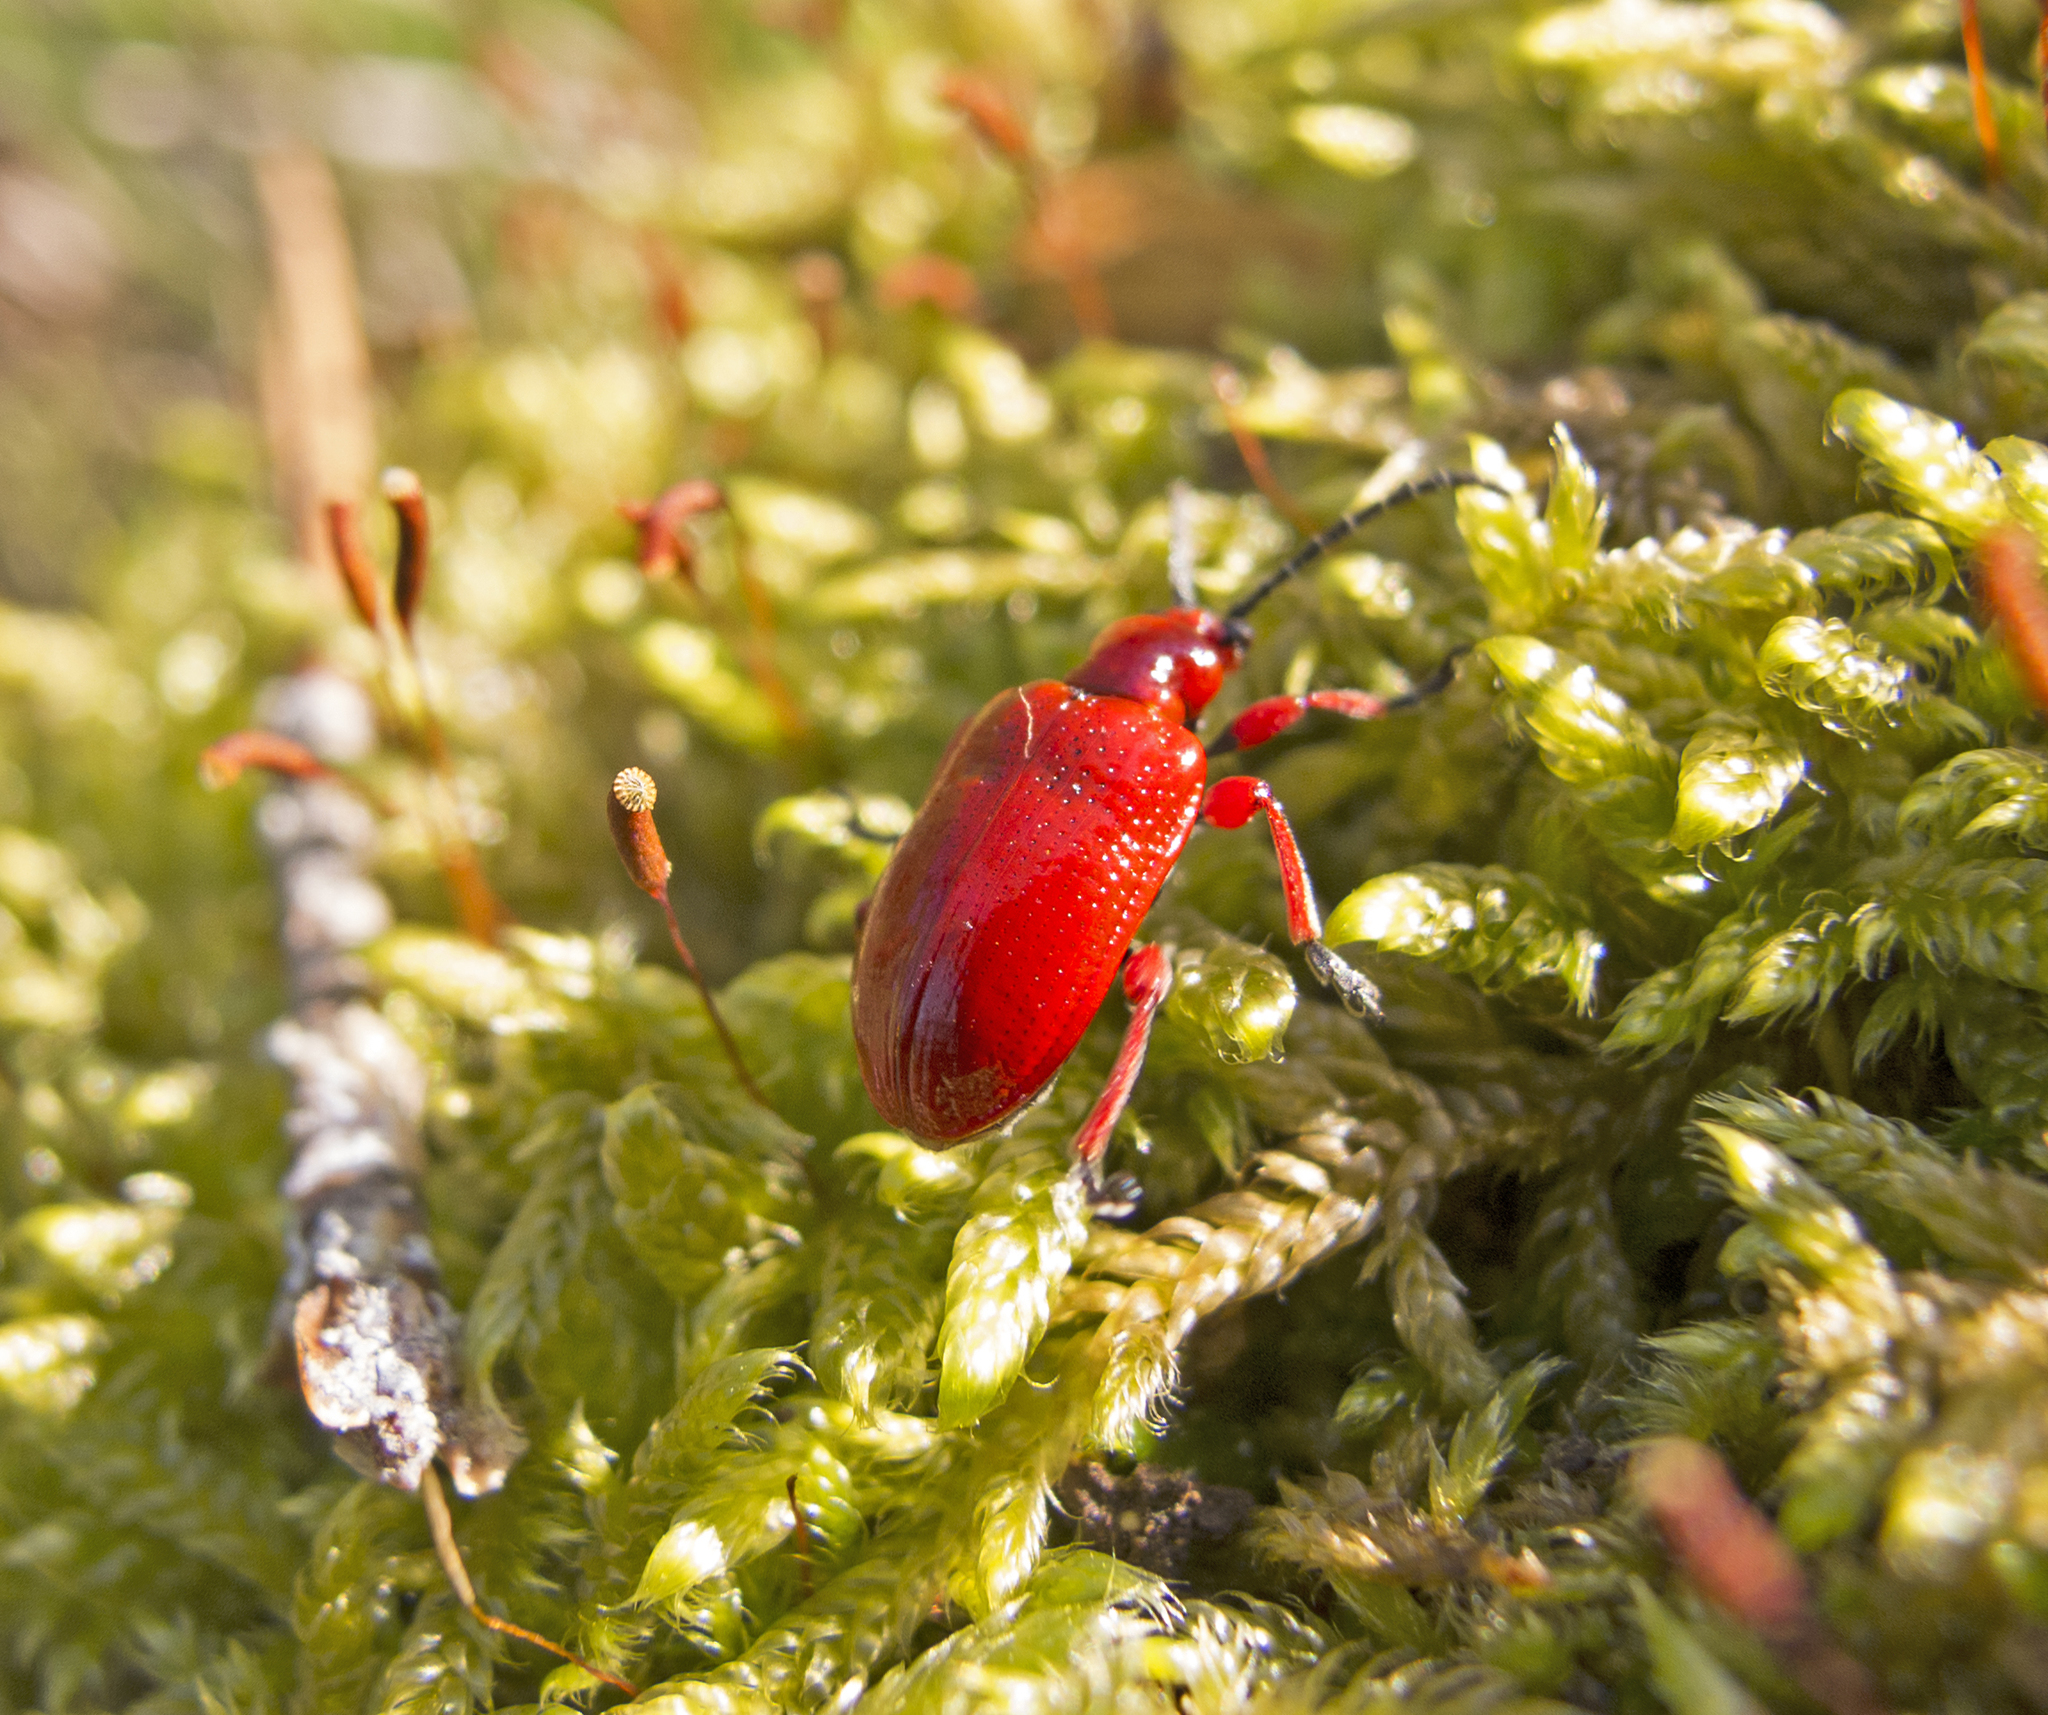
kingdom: Animalia
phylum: Arthropoda
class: Insecta
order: Coleoptera
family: Chrysomelidae
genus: Lilioceris
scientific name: Lilioceris faldermanni
